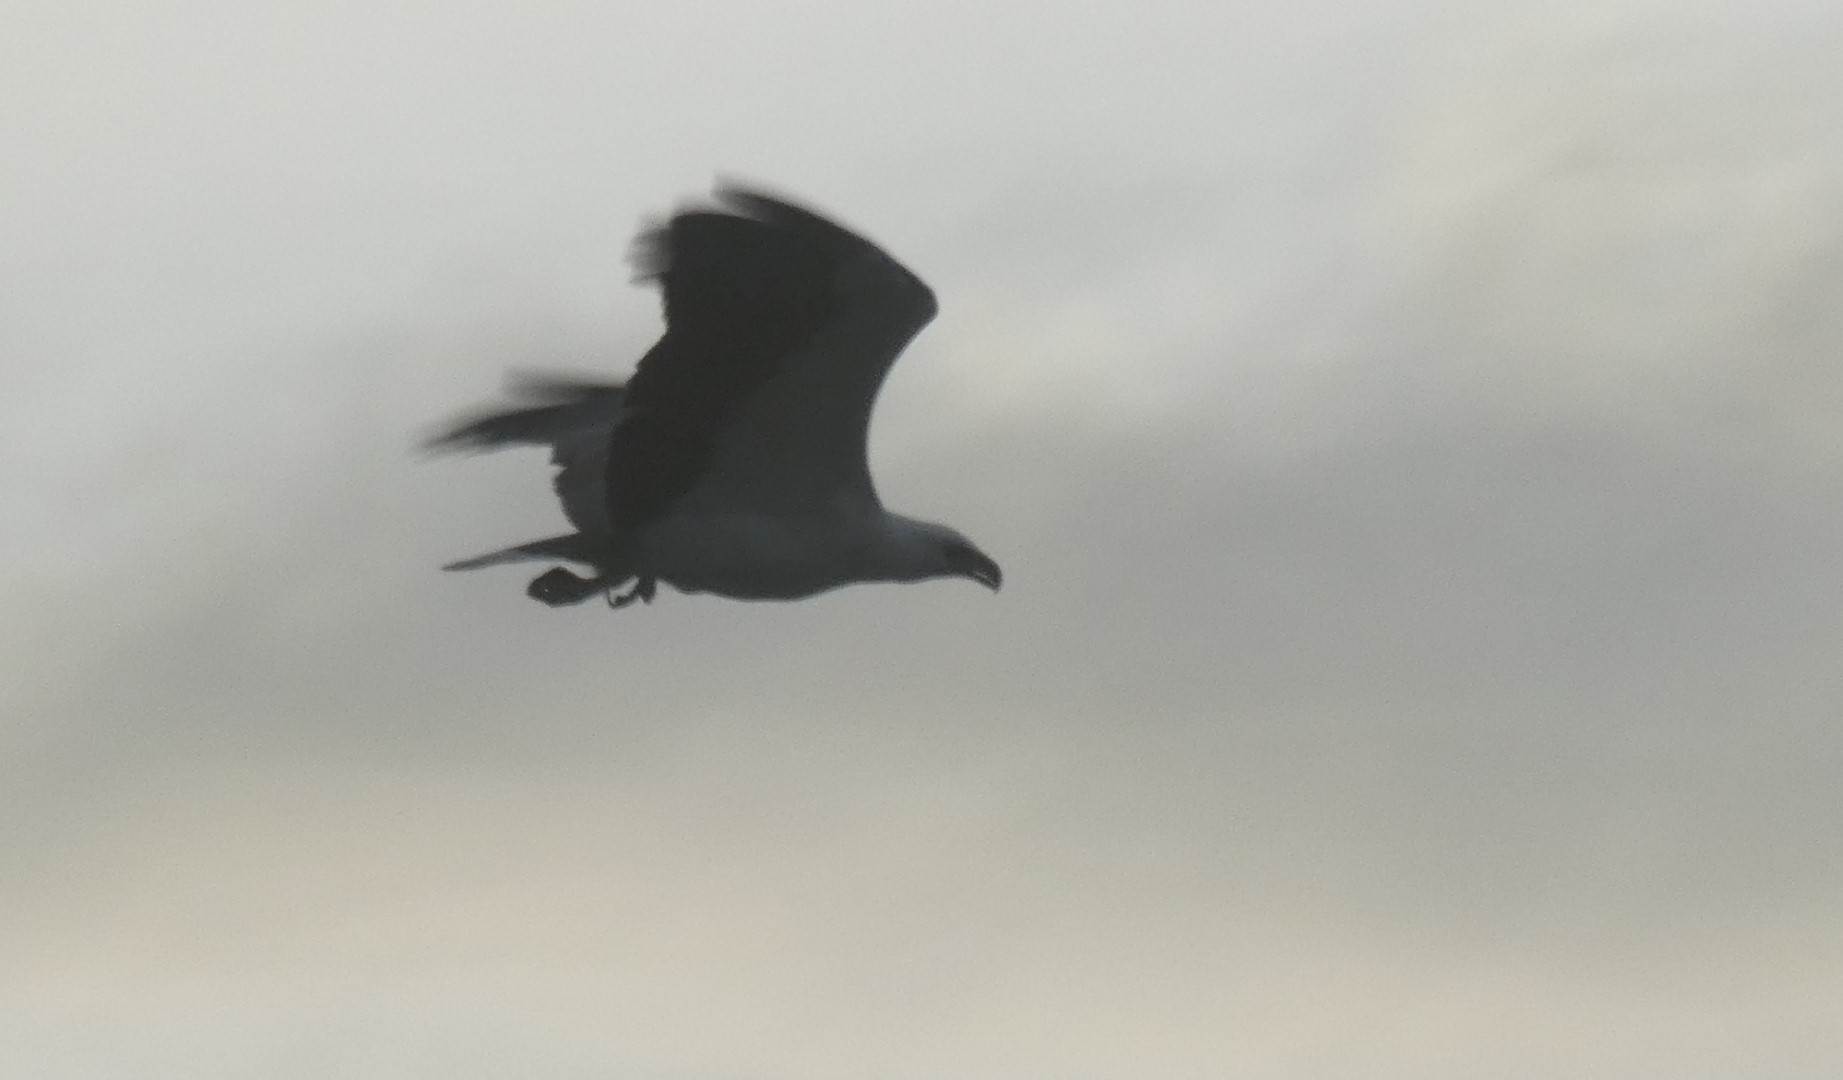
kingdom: Animalia
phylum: Chordata
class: Aves
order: Accipitriformes
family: Accipitridae
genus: Haliaeetus
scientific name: Haliaeetus leucogaster
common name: White-bellied sea eagle
